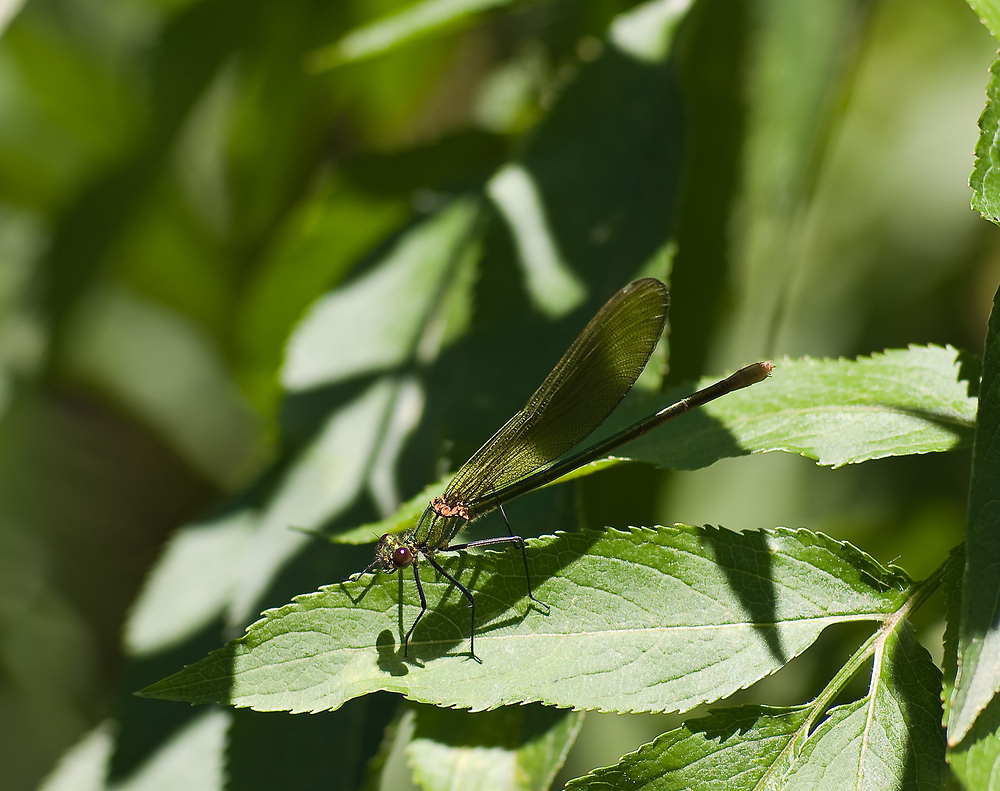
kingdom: Animalia
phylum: Arthropoda
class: Insecta
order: Odonata
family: Calopterygidae
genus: Calopteryx
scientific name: Calopteryx xanthostoma
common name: Western demoiselle
